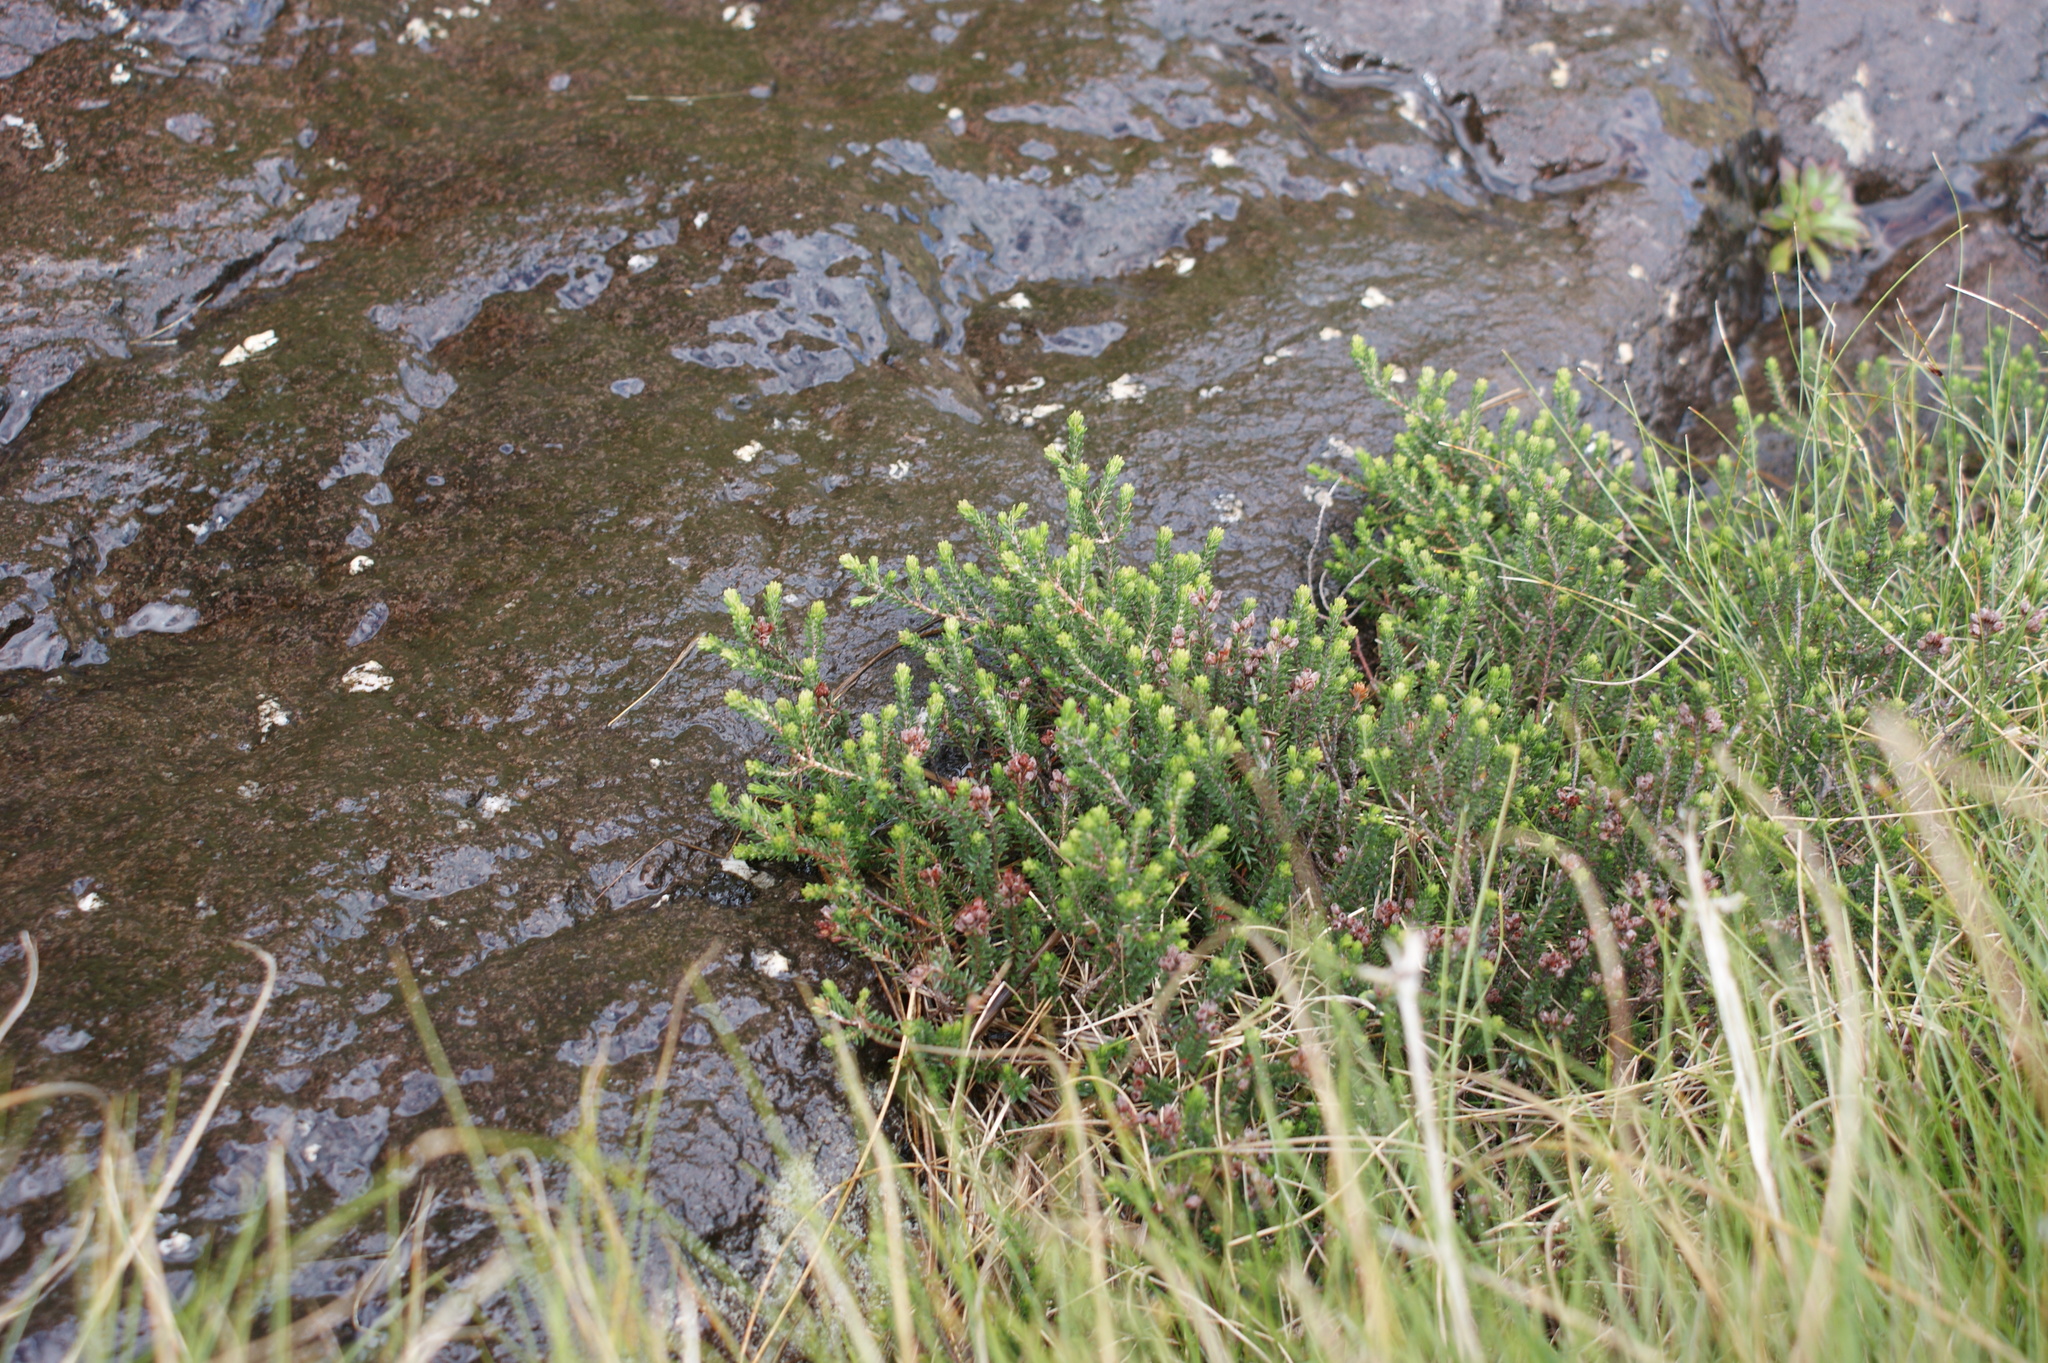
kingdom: Plantae
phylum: Tracheophyta
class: Magnoliopsida
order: Ericales
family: Ericaceae
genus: Erica
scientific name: Erica thodei
